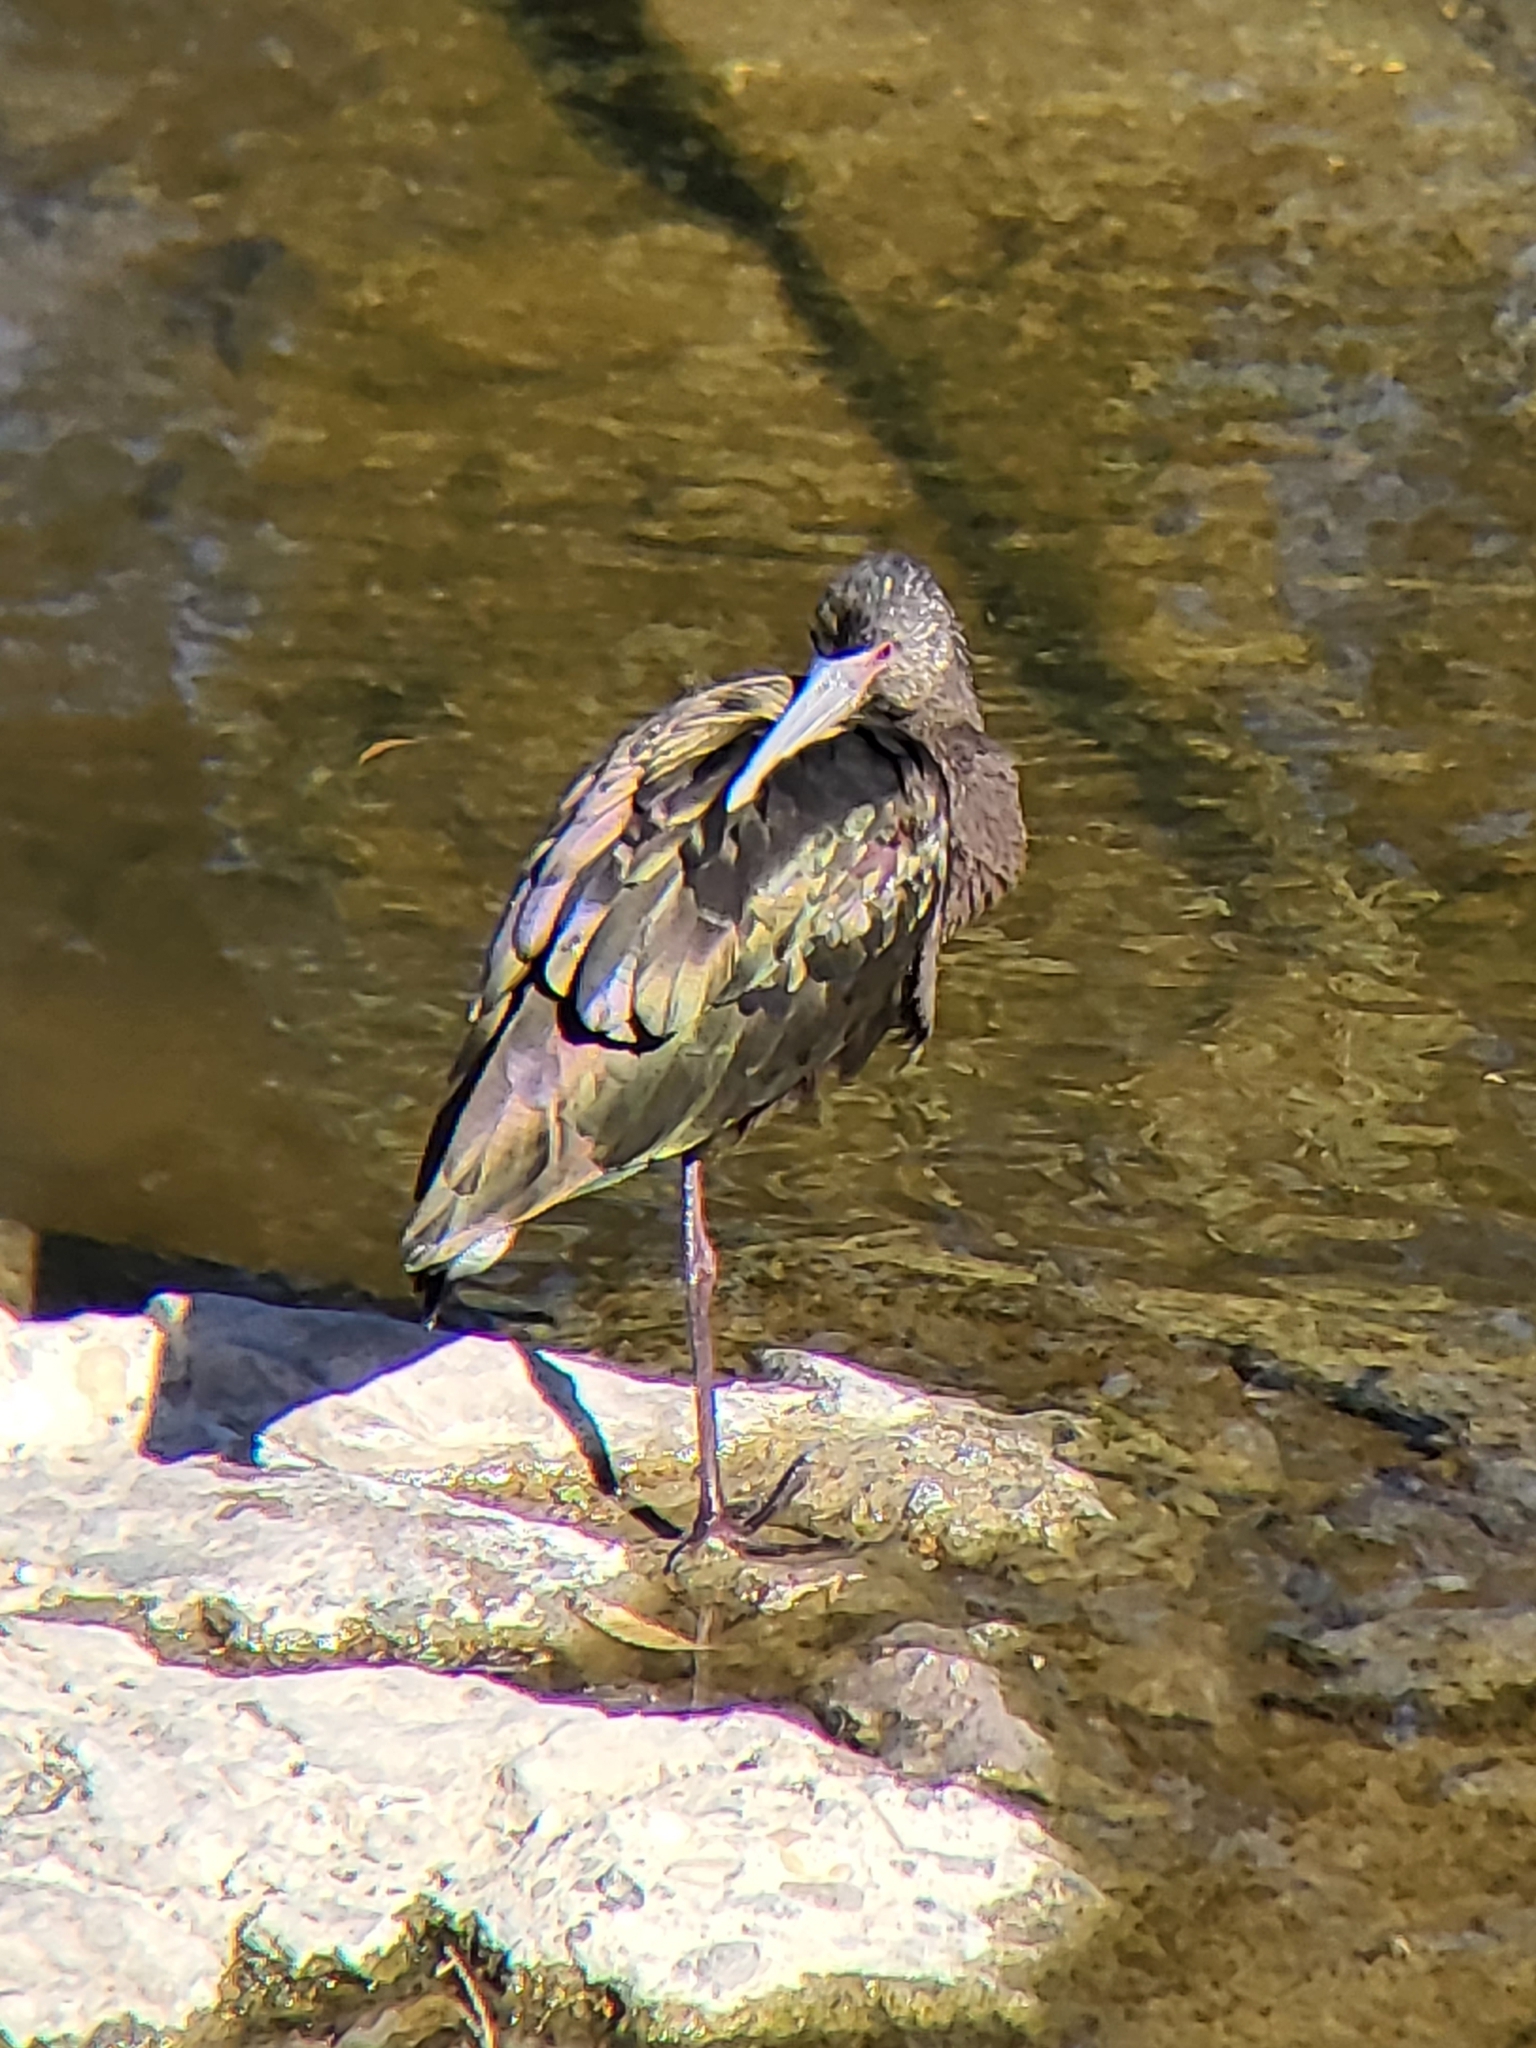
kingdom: Animalia
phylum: Chordata
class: Aves
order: Pelecaniformes
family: Threskiornithidae
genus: Plegadis
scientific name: Plegadis chihi
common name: White-faced ibis
